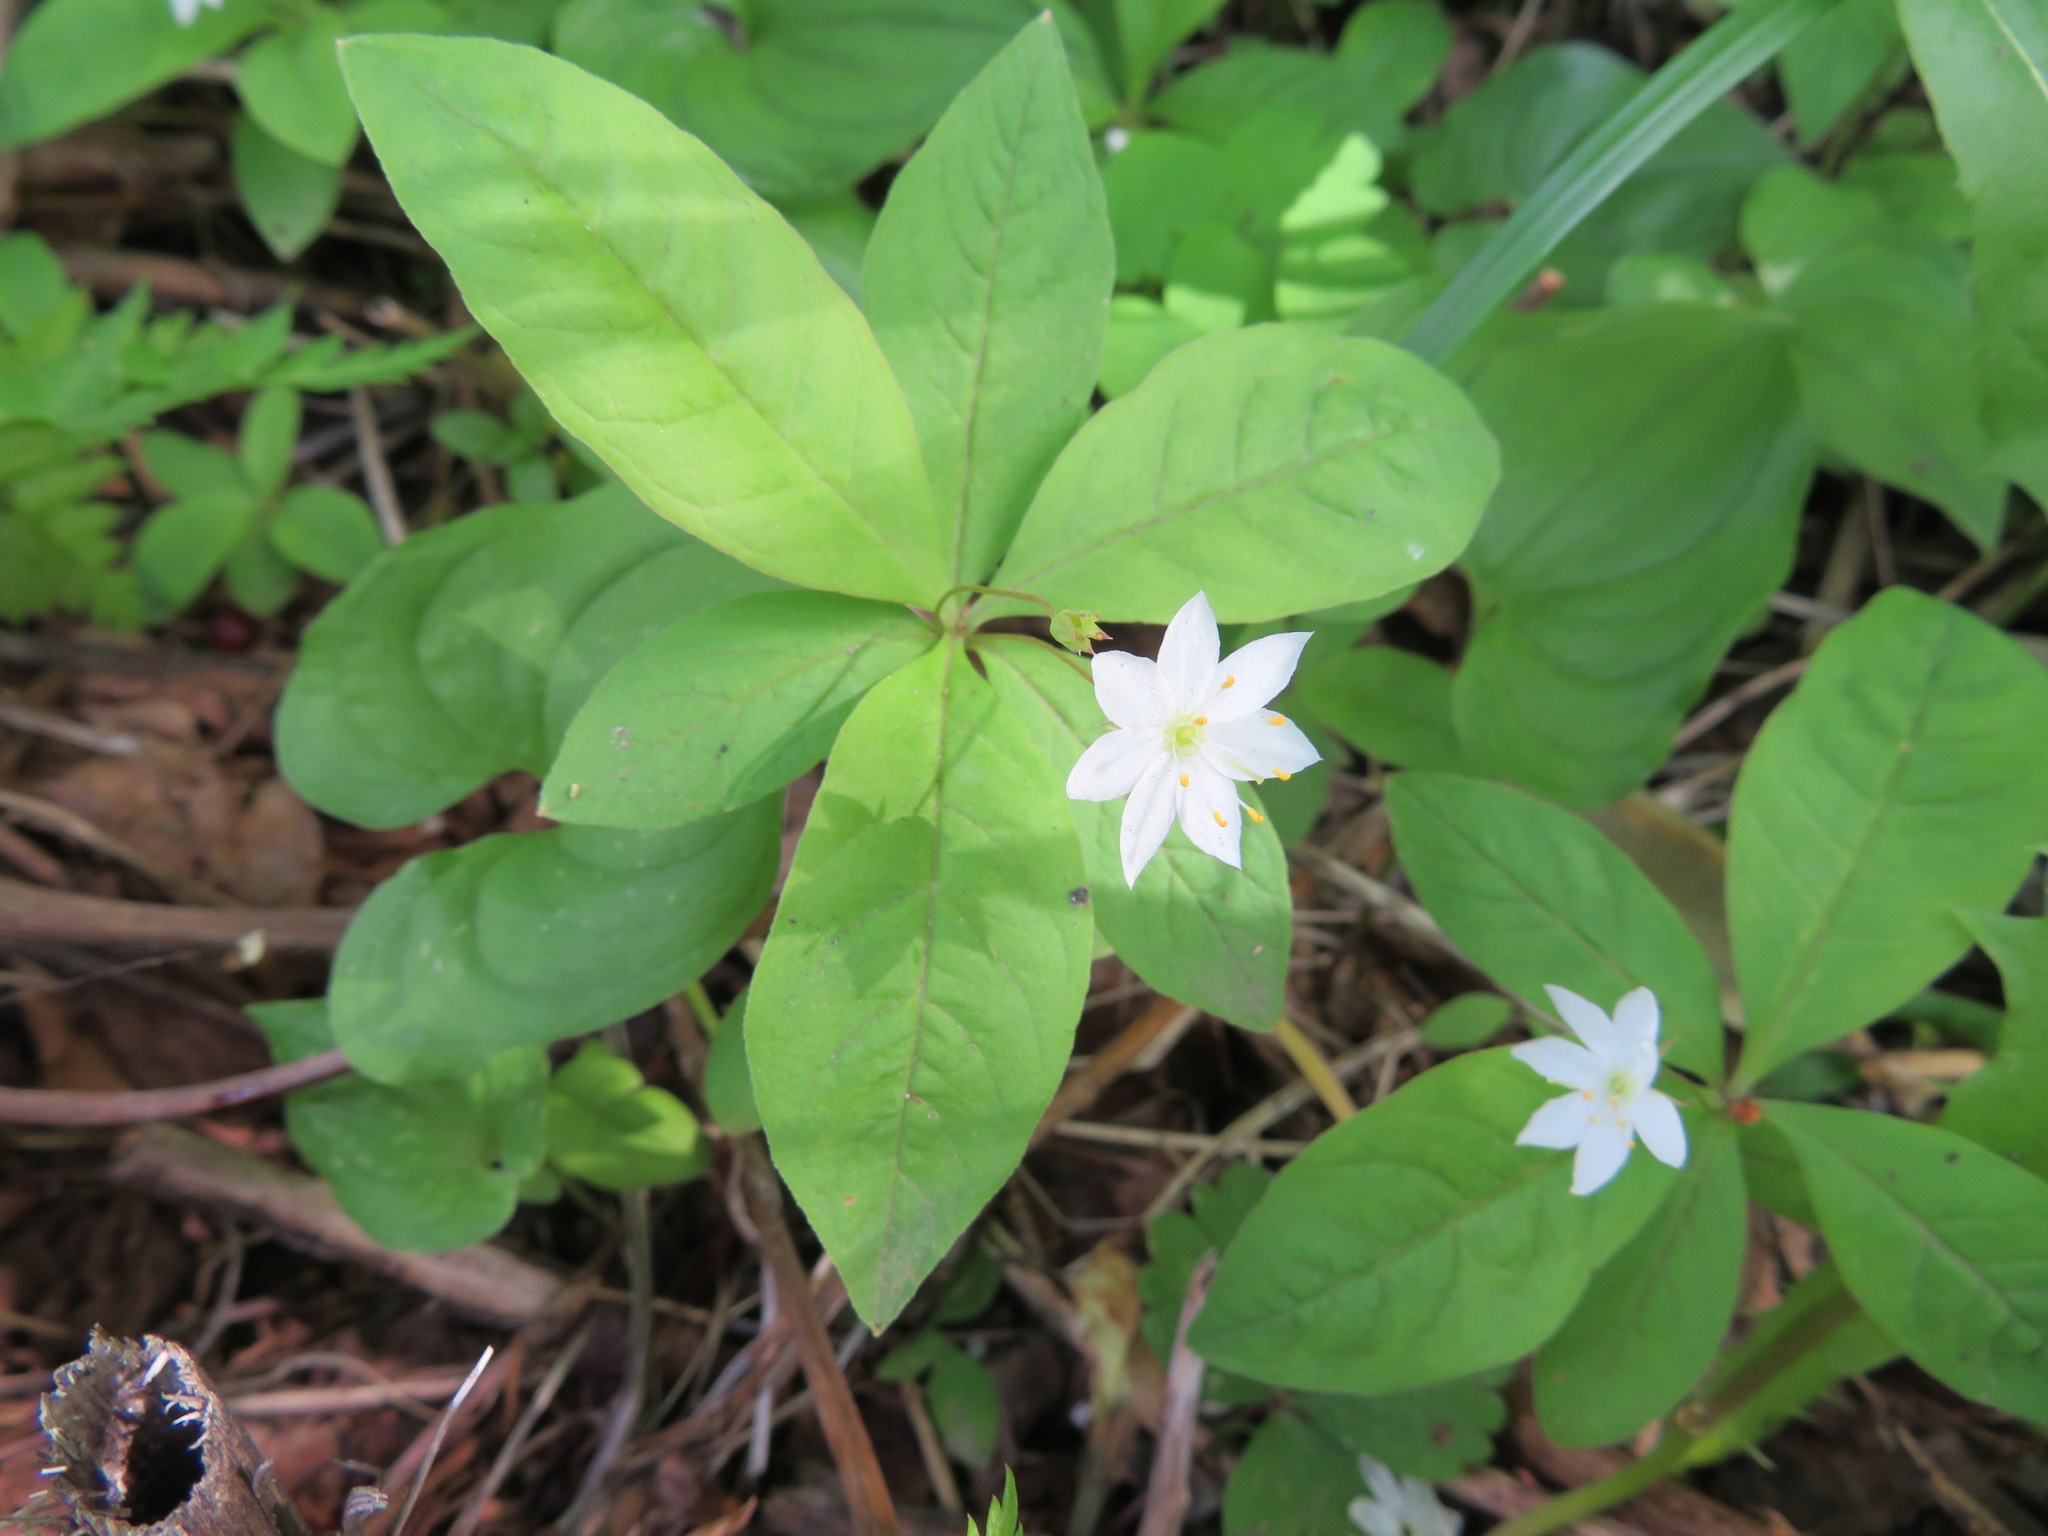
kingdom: Plantae
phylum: Tracheophyta
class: Magnoliopsida
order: Ericales
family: Primulaceae
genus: Lysimachia
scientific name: Lysimachia europaea
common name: Arctic starflower
